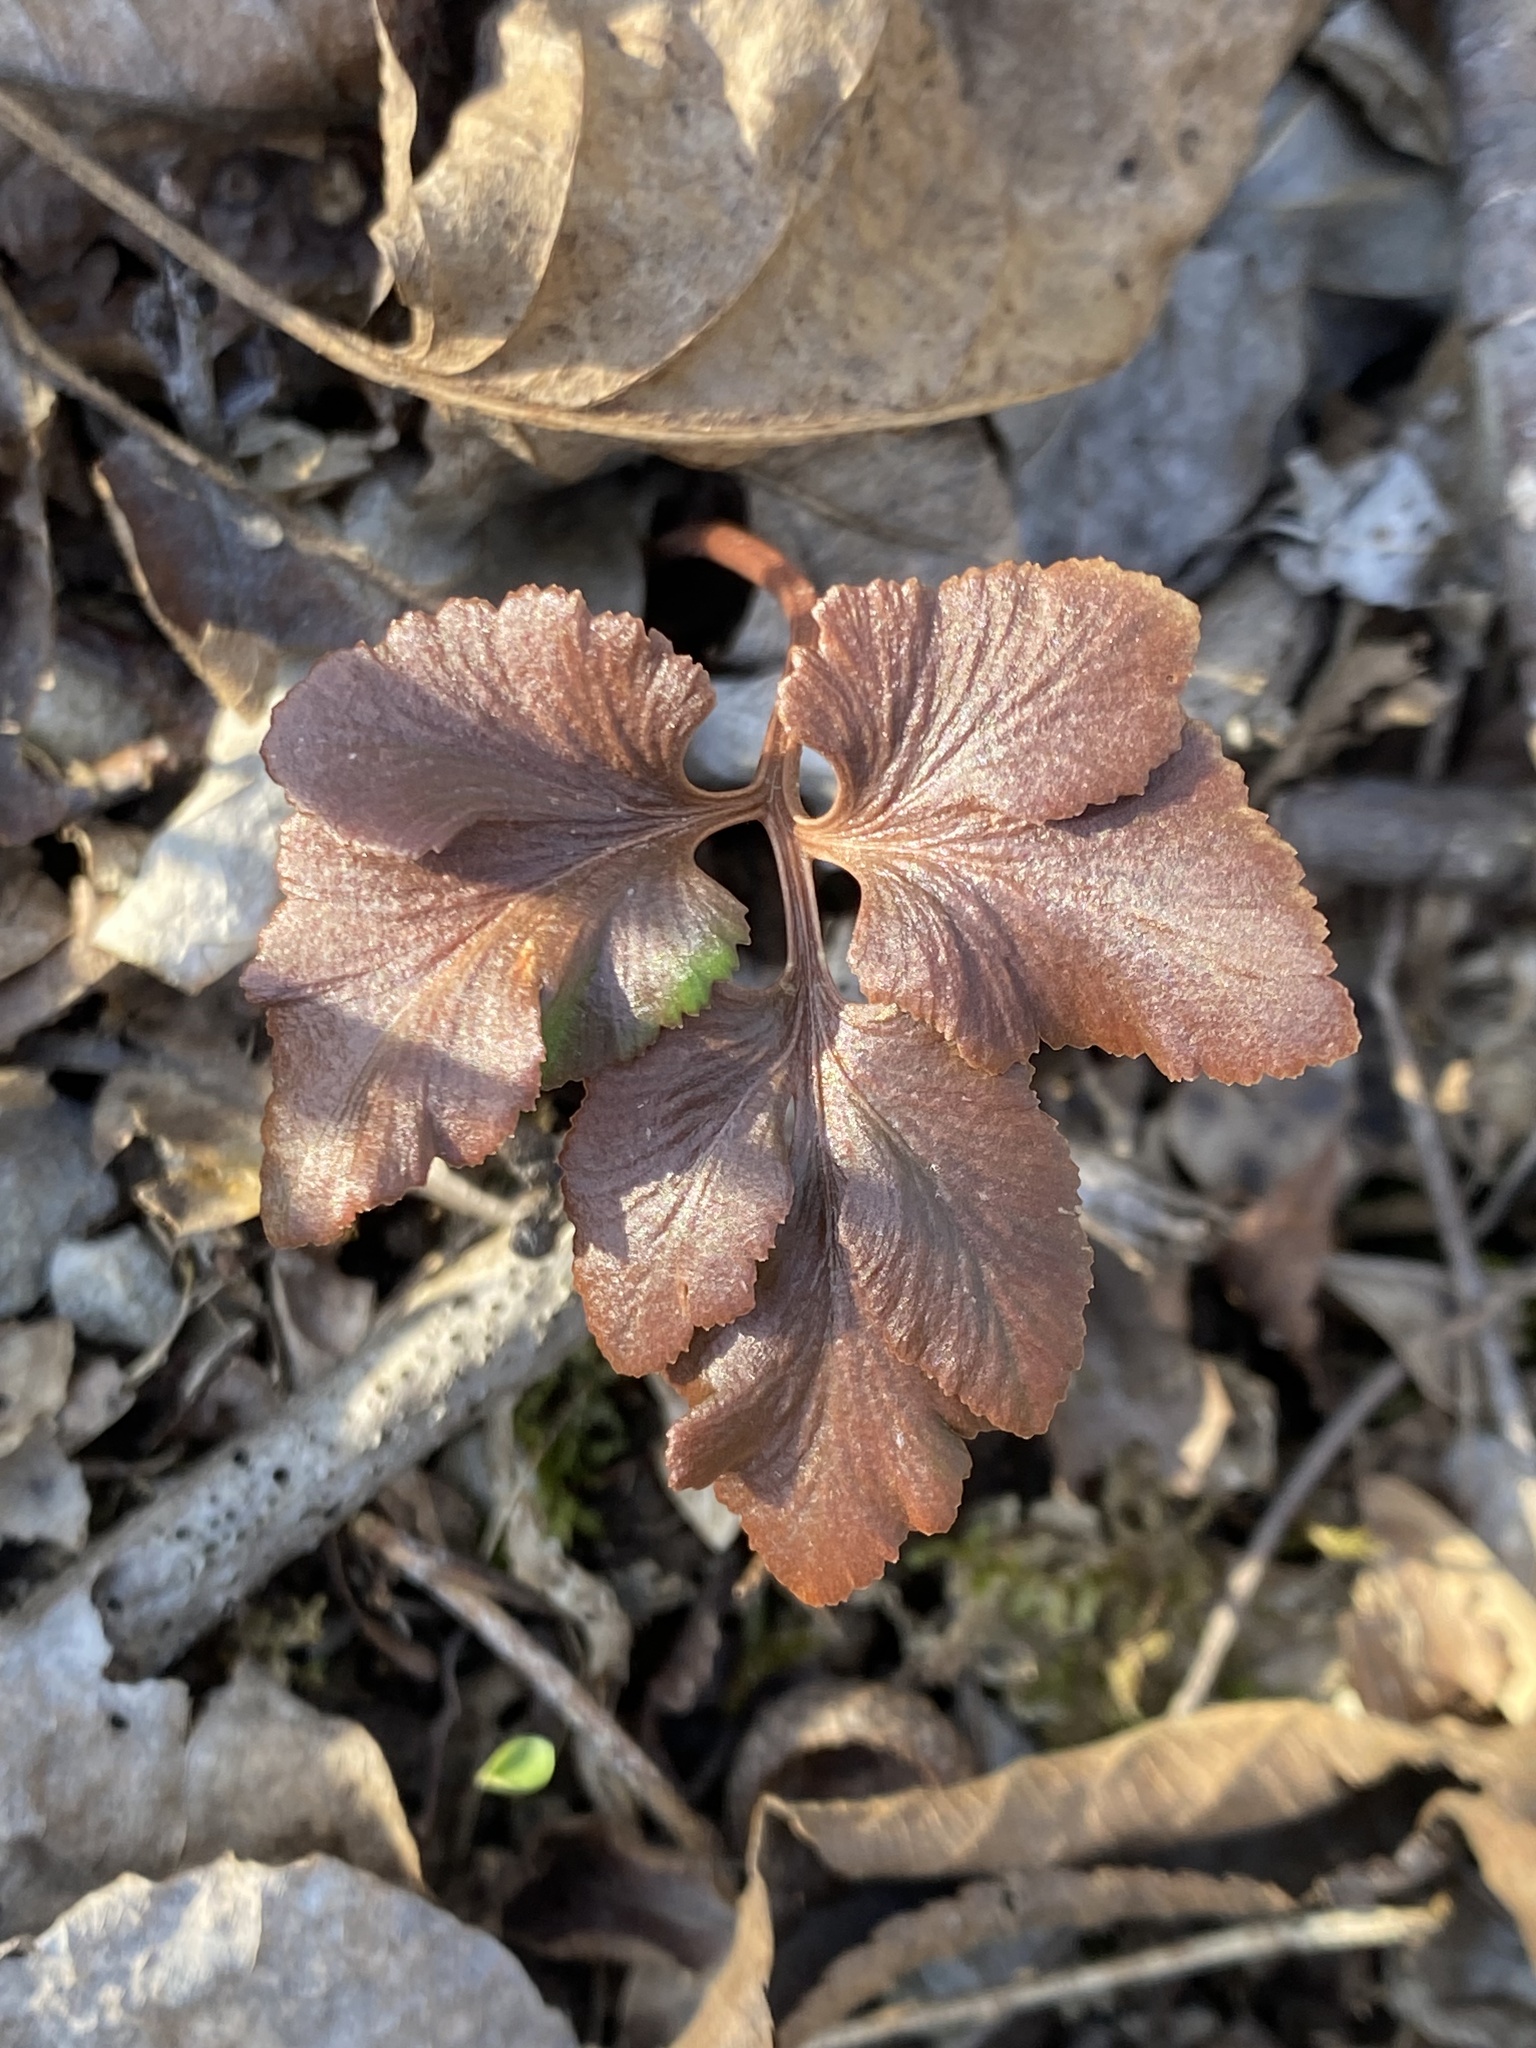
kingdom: Plantae
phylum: Tracheophyta
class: Polypodiopsida
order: Ophioglossales
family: Ophioglossaceae
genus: Sceptridium
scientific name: Sceptridium dissectum
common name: Cut-leaved grapefern
